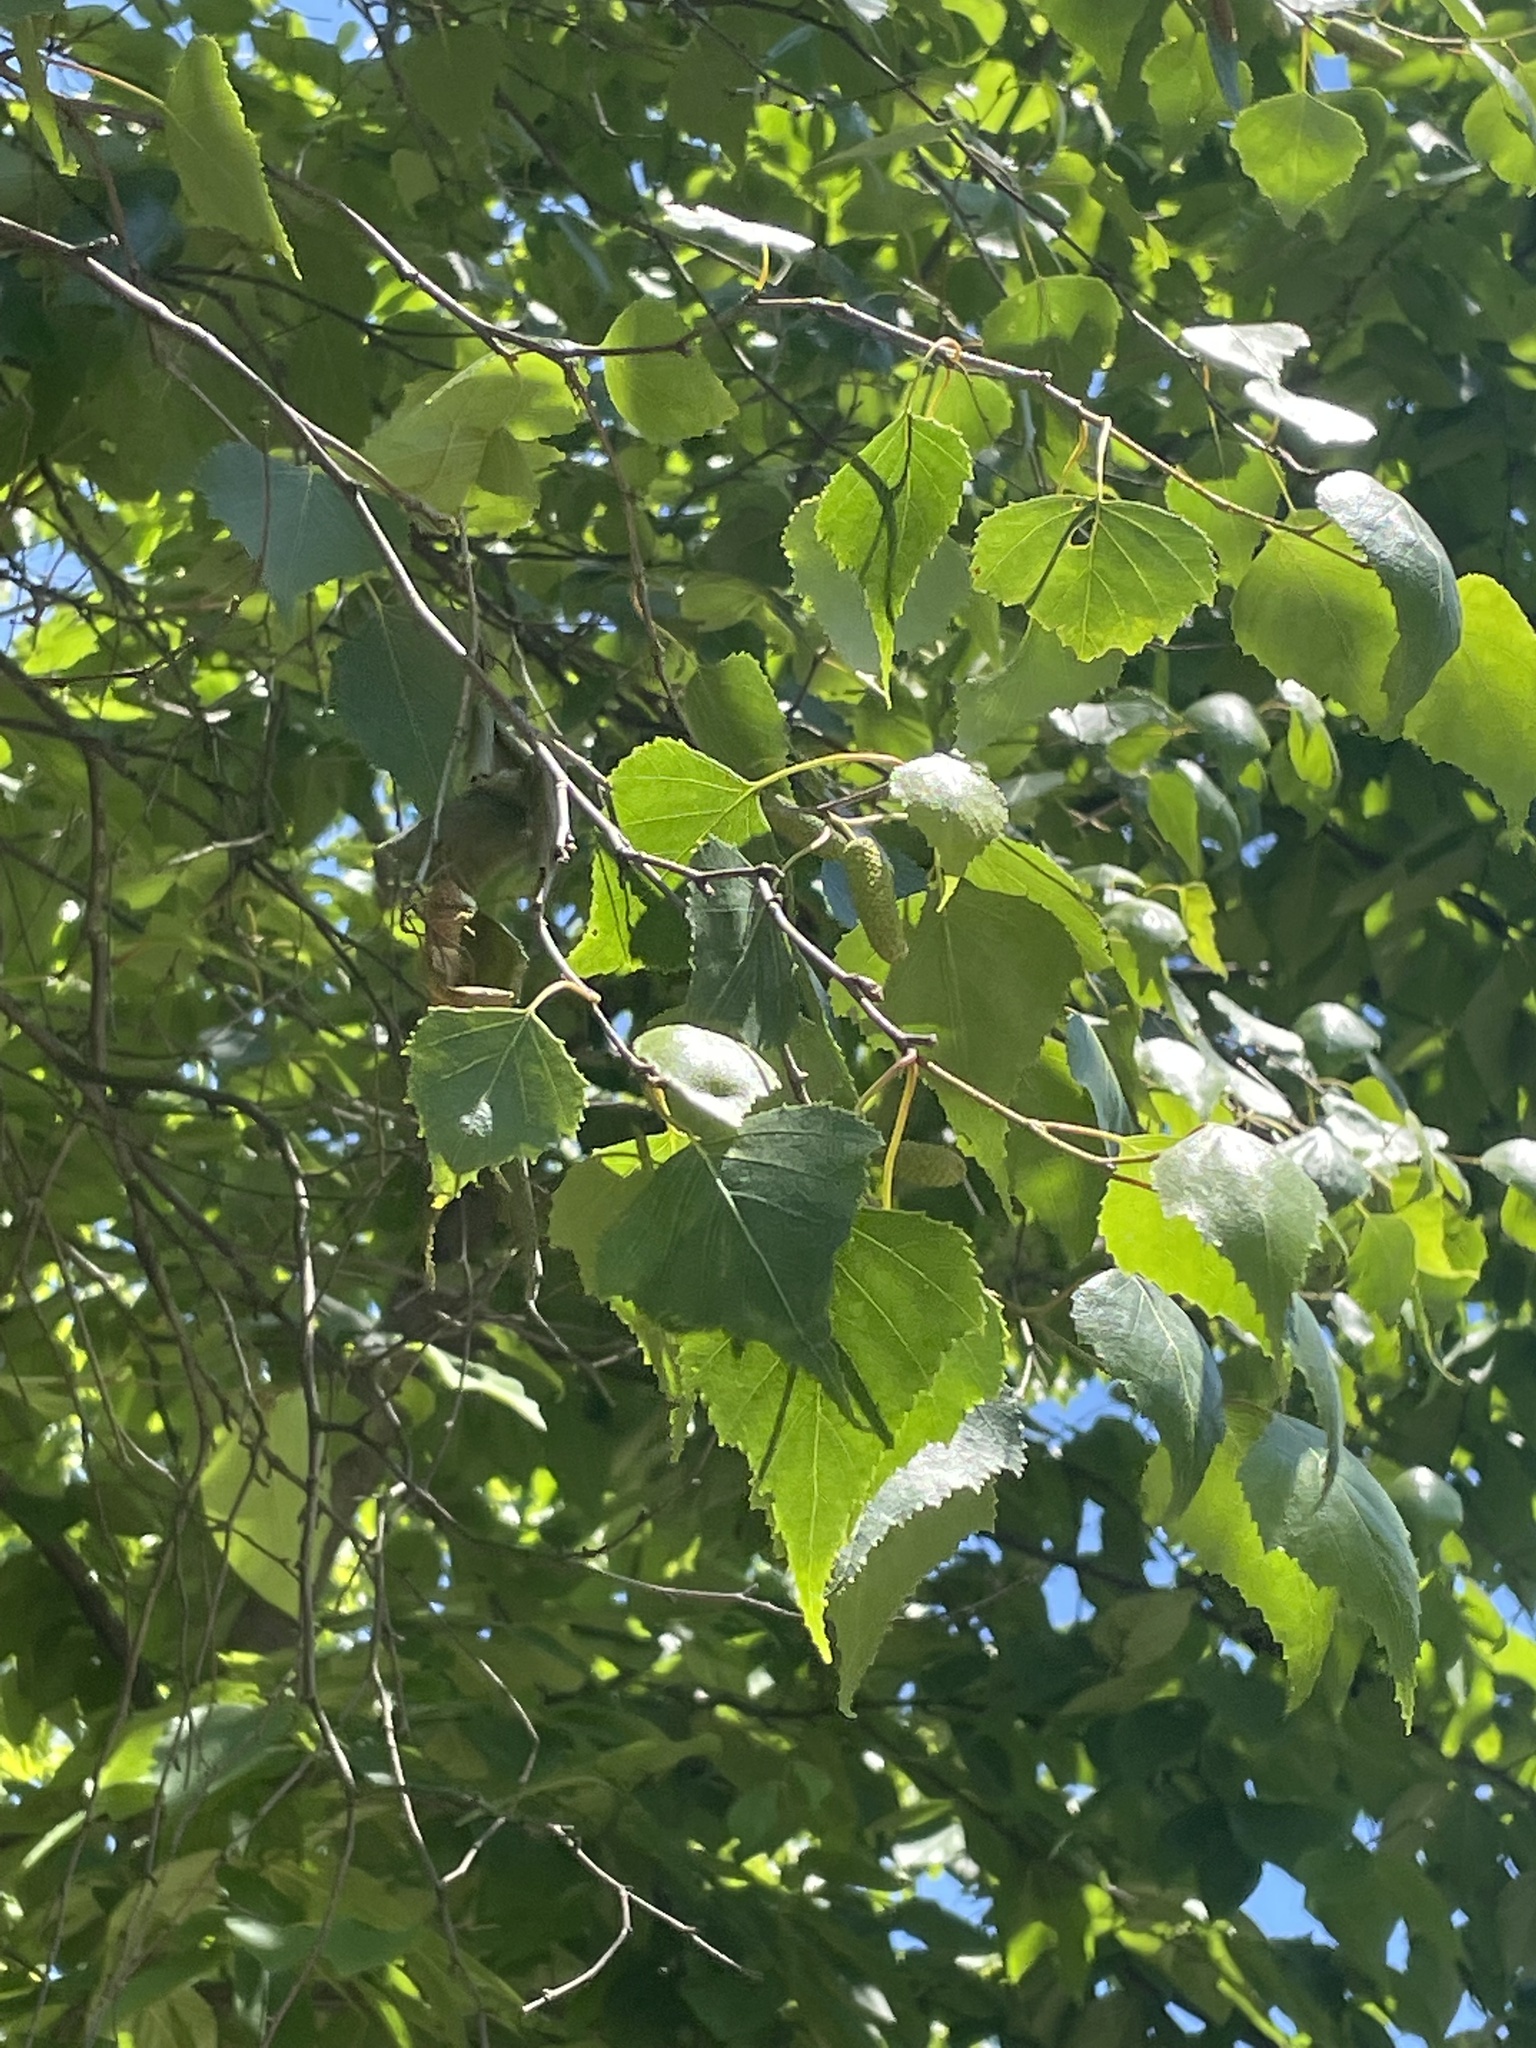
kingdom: Plantae
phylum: Tracheophyta
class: Magnoliopsida
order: Fagales
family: Betulaceae
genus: Betula
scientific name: Betula populifolia
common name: Fire birch
